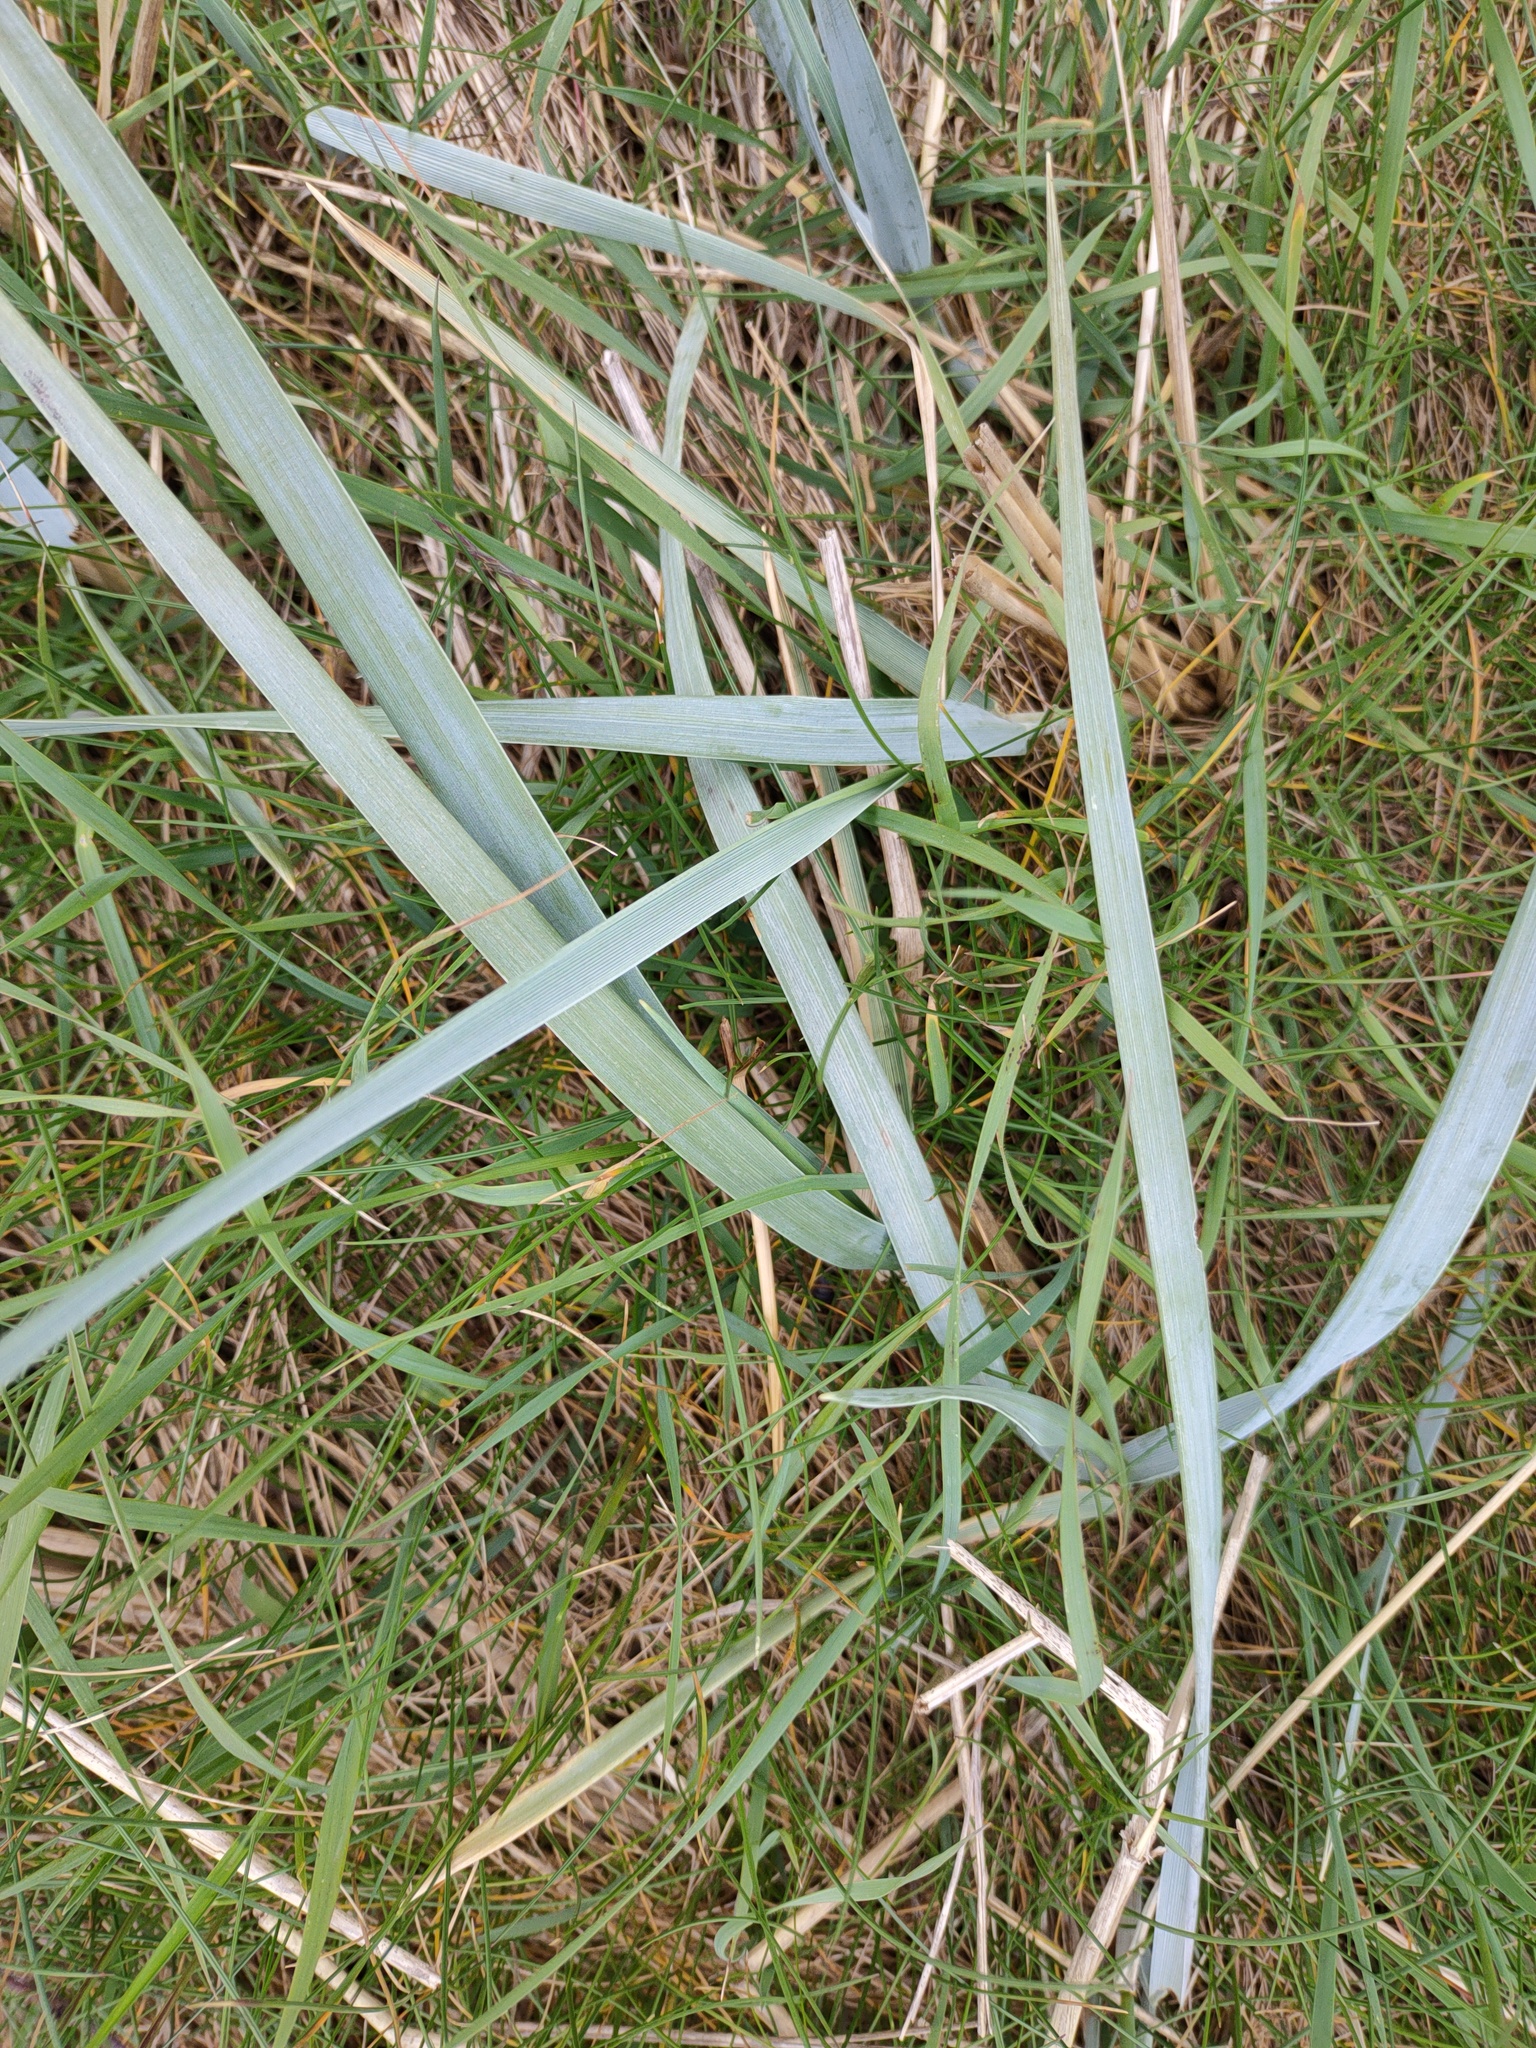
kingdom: Plantae
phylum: Tracheophyta
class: Liliopsida
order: Poales
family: Poaceae
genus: Leymus
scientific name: Leymus arenarius
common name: Lyme-grass
